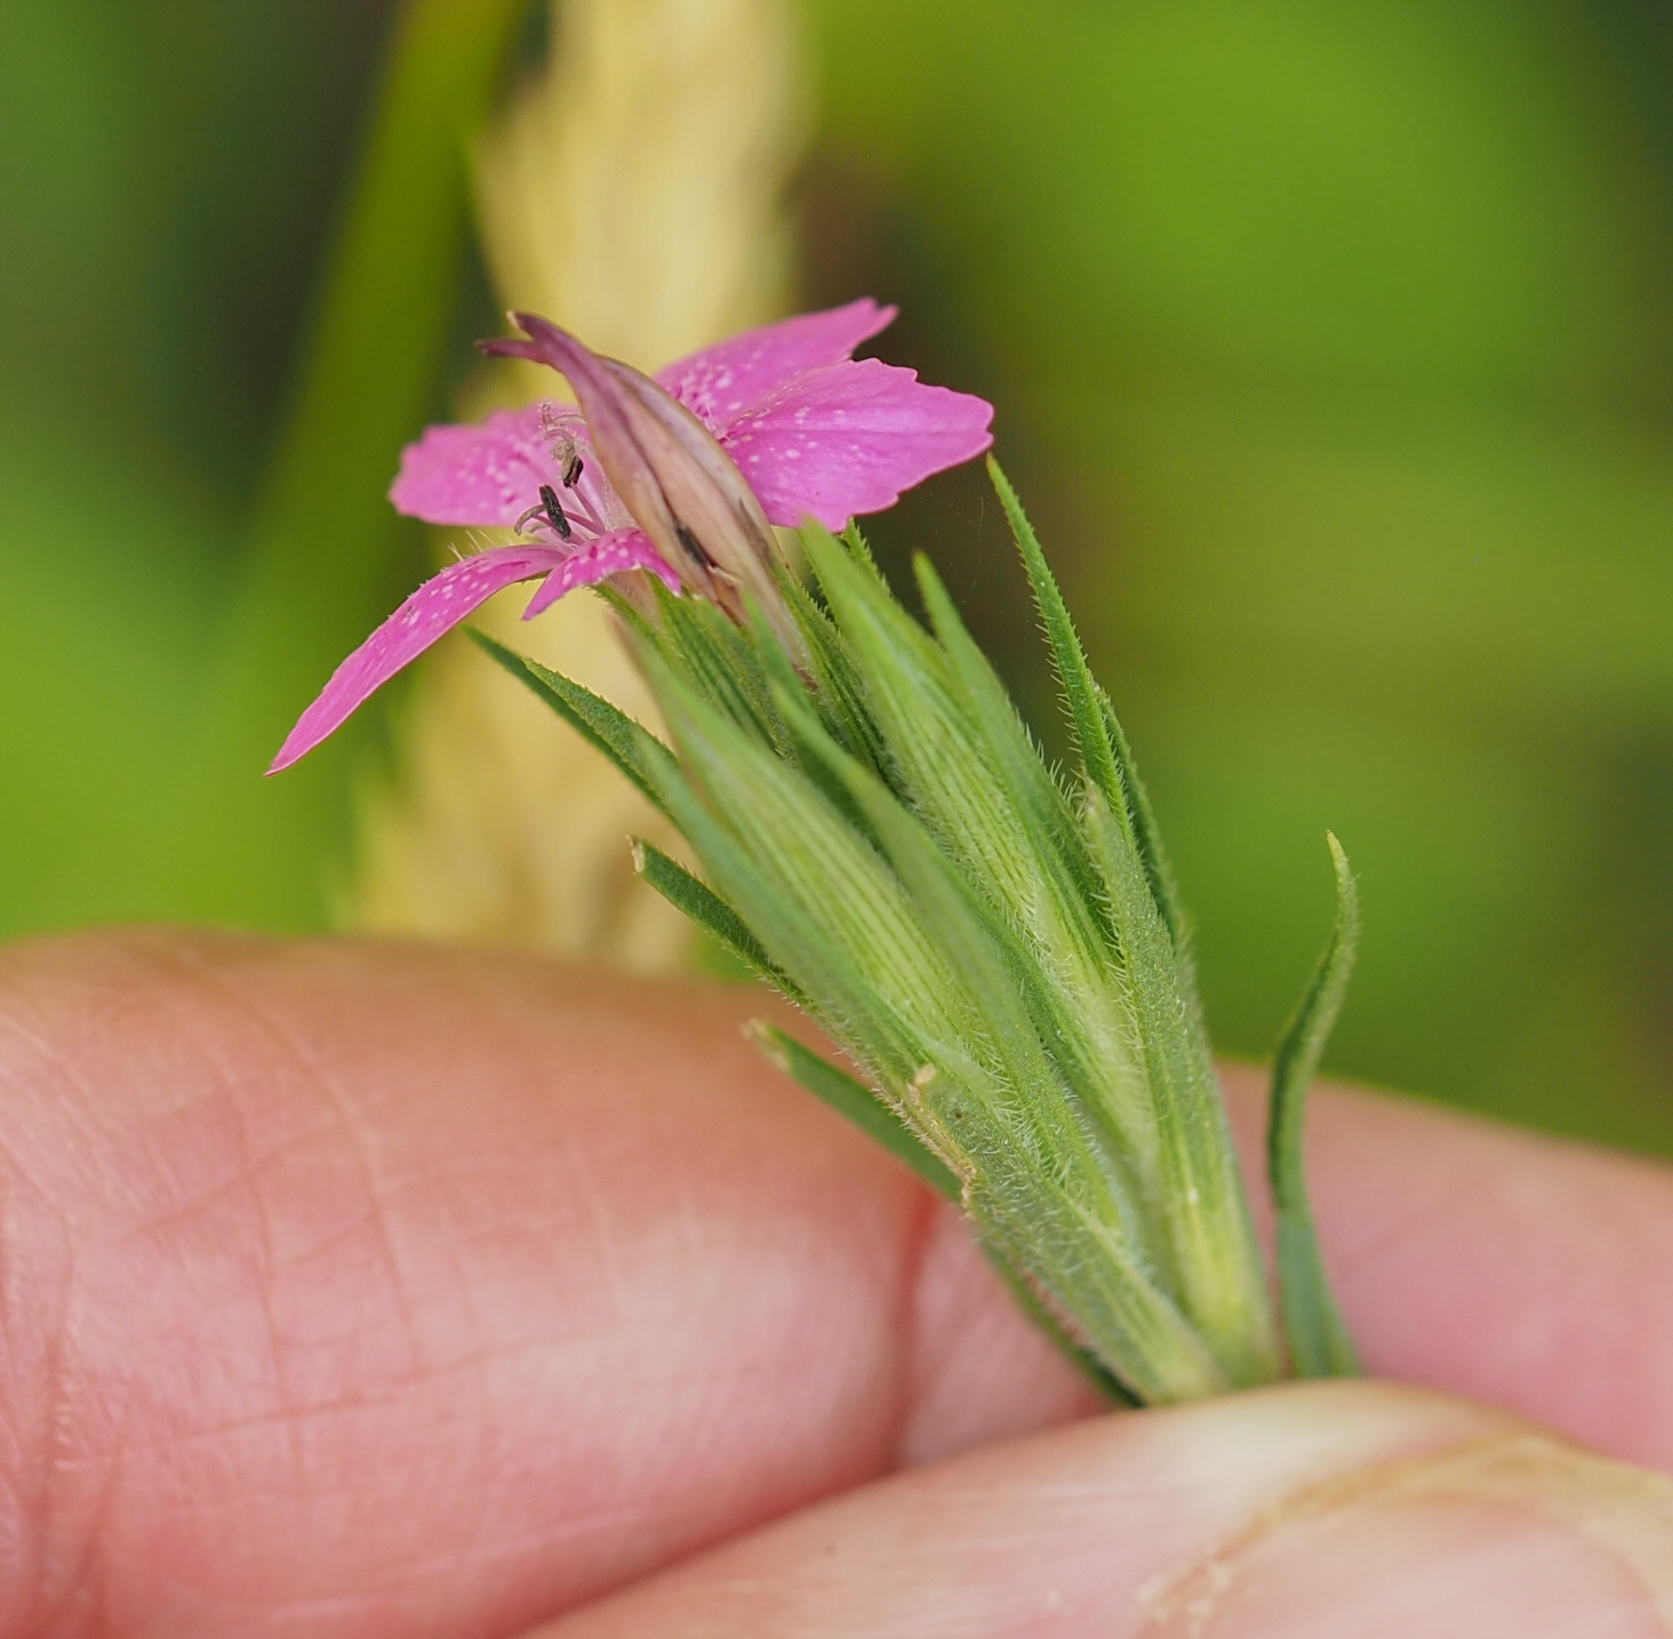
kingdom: Plantae
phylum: Tracheophyta
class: Magnoliopsida
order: Caryophyllales
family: Caryophyllaceae
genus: Dianthus
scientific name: Dianthus armeria
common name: Deptford pink
